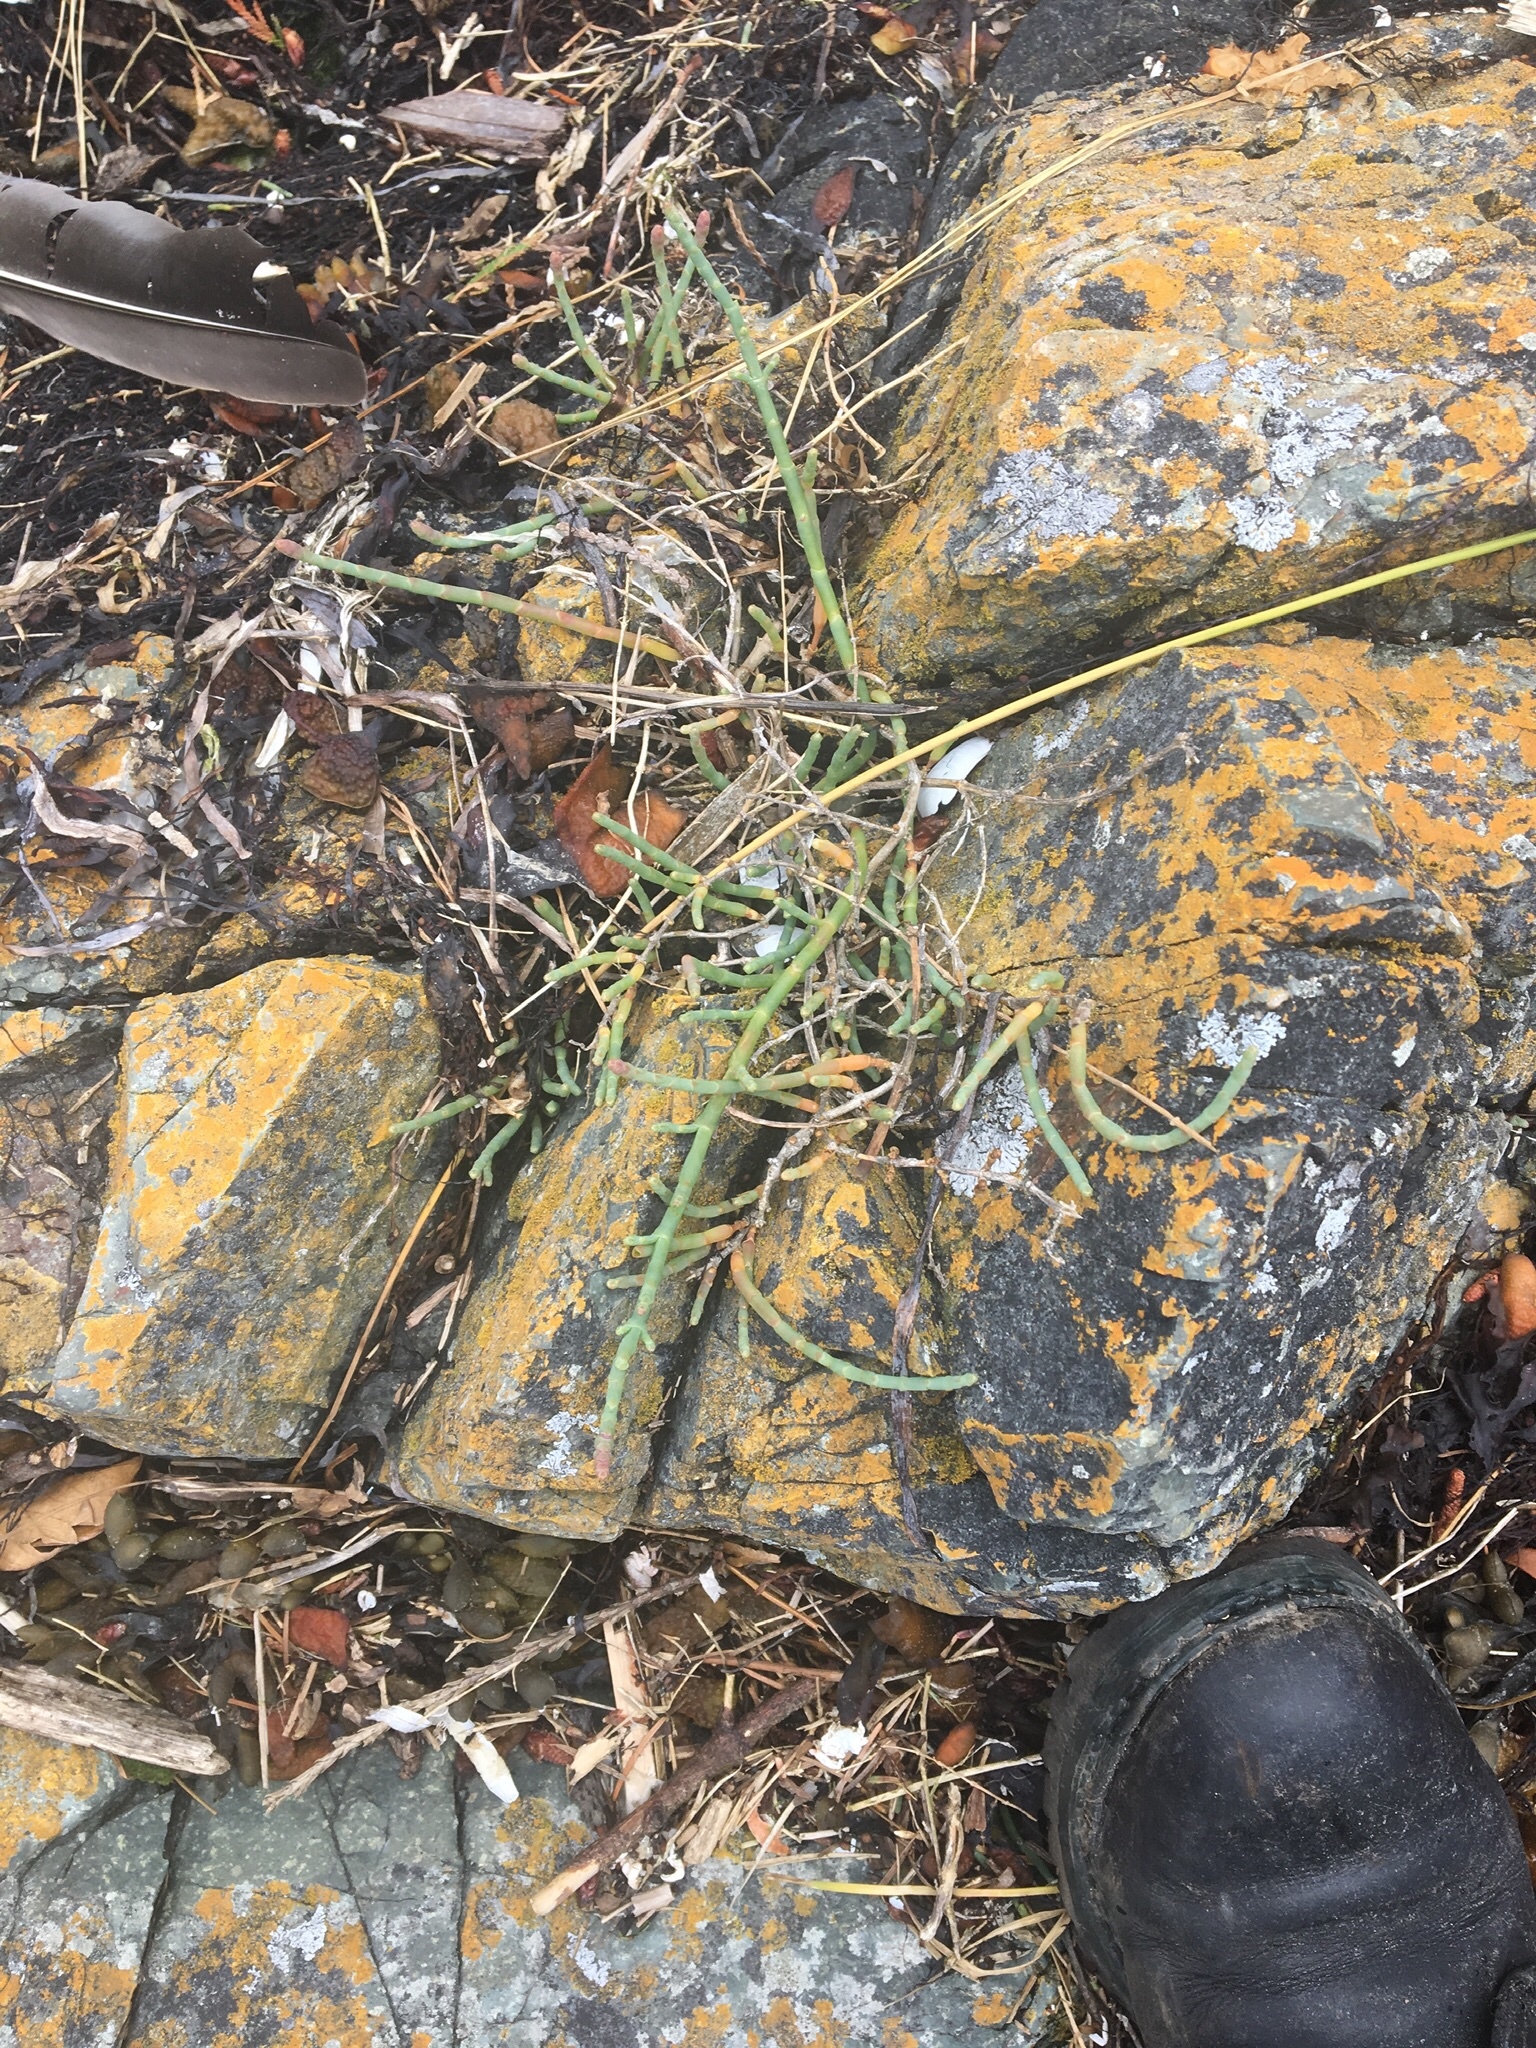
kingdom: Plantae
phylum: Tracheophyta
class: Magnoliopsida
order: Caryophyllales
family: Amaranthaceae
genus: Salicornia
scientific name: Salicornia pacifica
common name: Pacific glasswort
